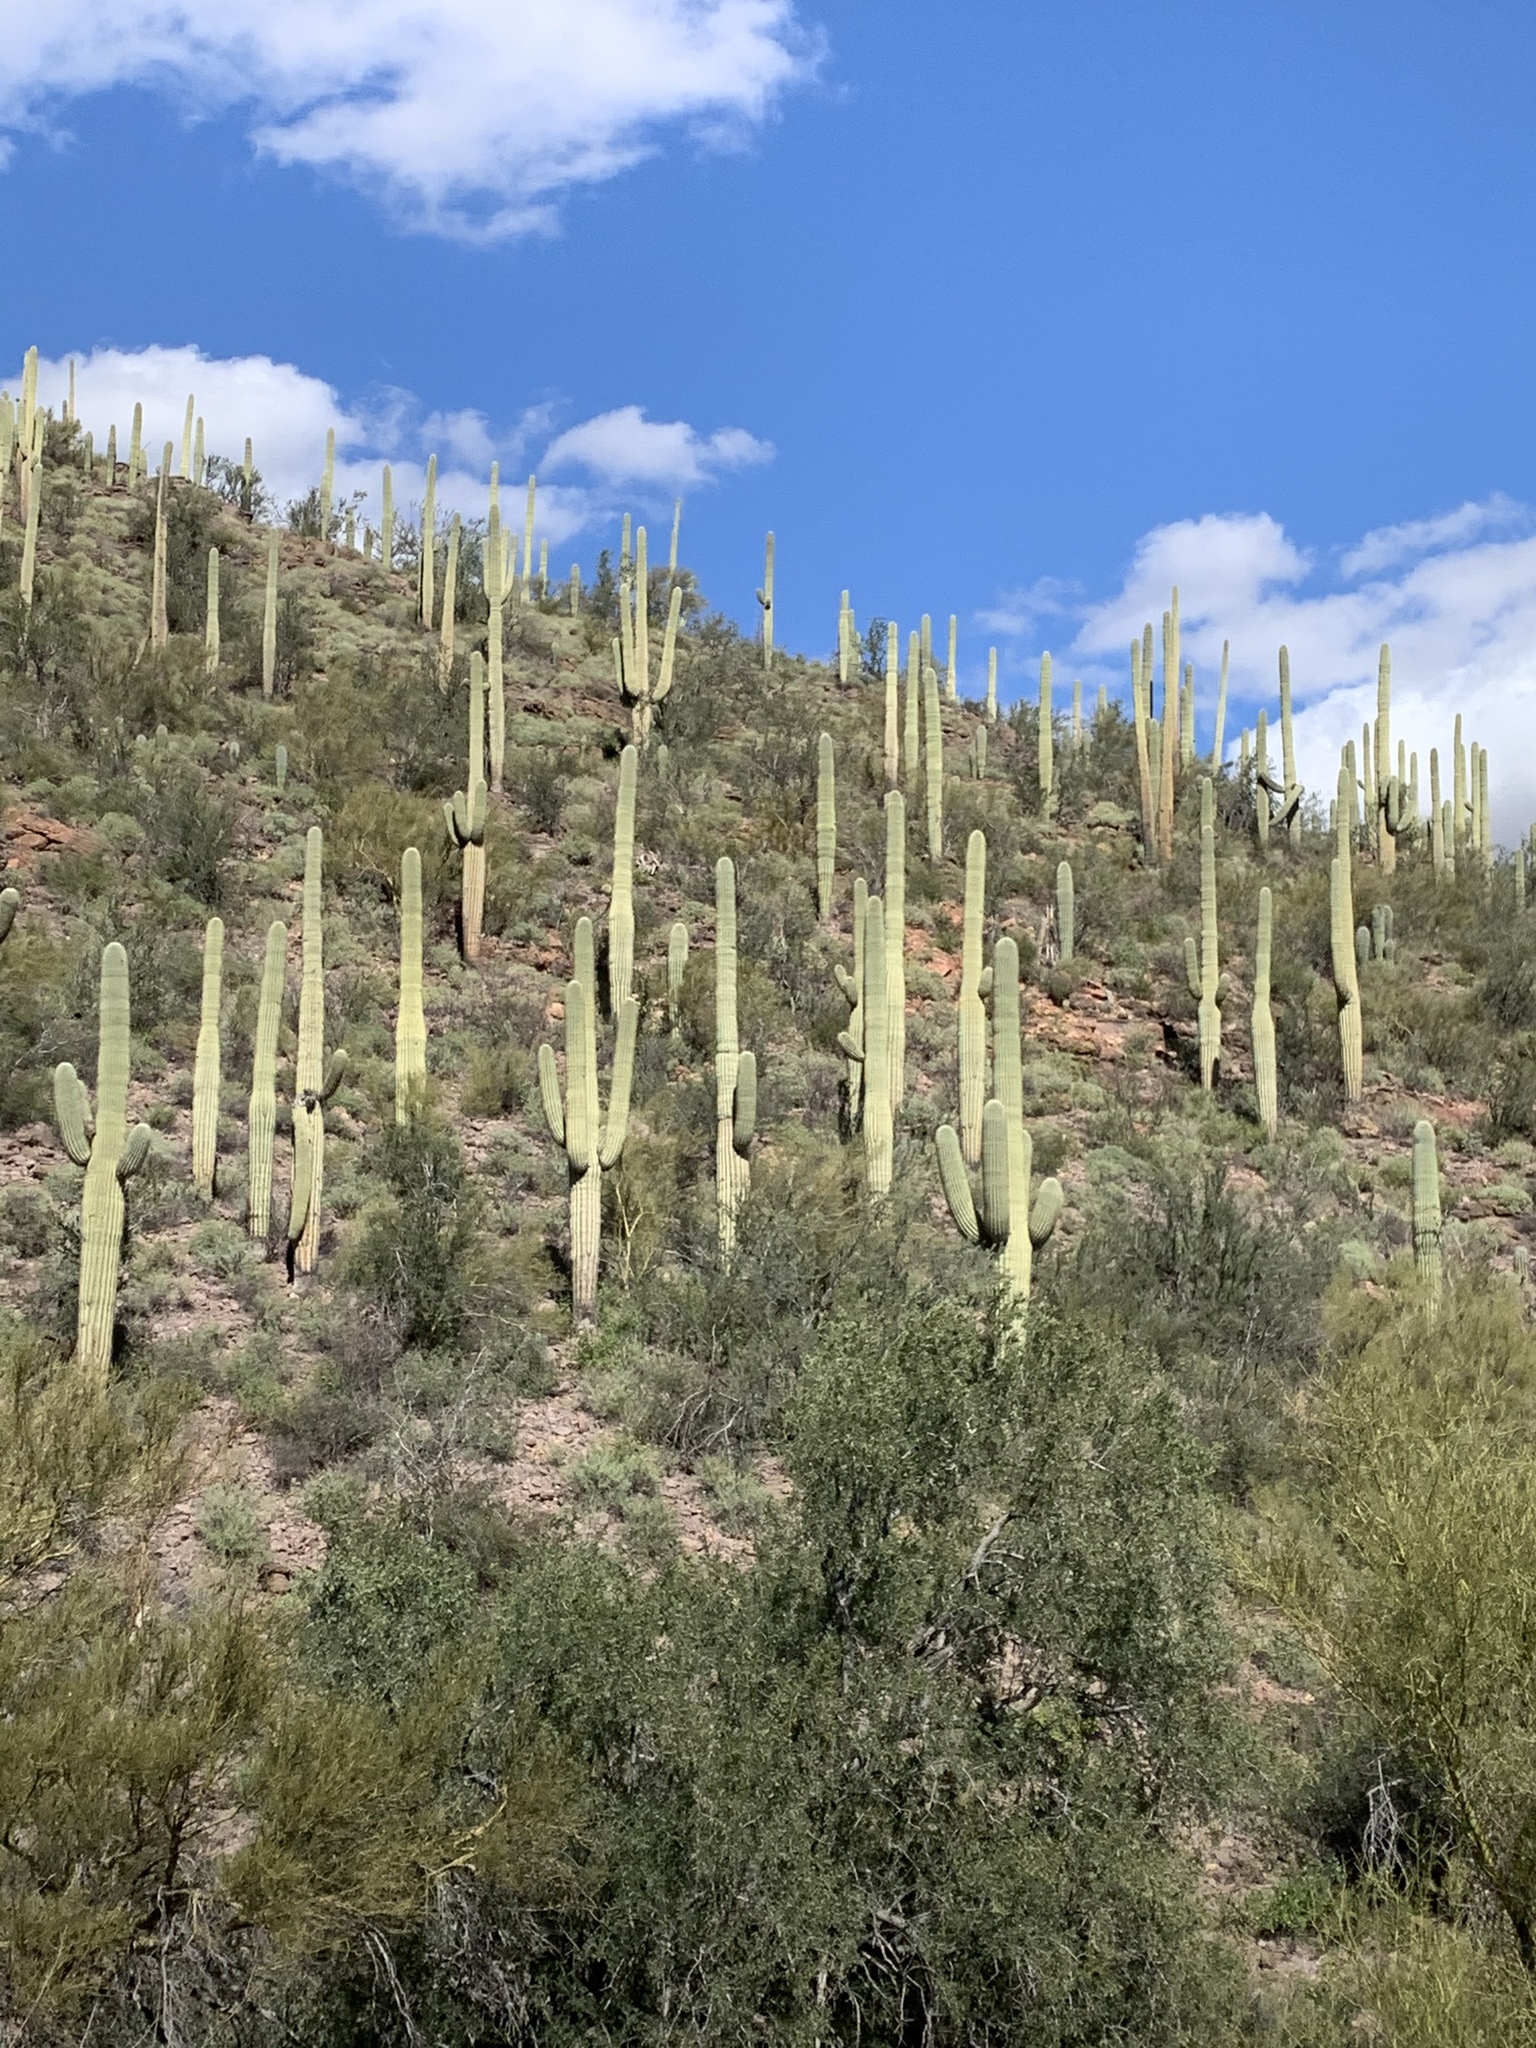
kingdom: Plantae
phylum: Tracheophyta
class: Magnoliopsida
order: Caryophyllales
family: Cactaceae
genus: Carnegiea
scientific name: Carnegiea gigantea
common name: Saguaro
